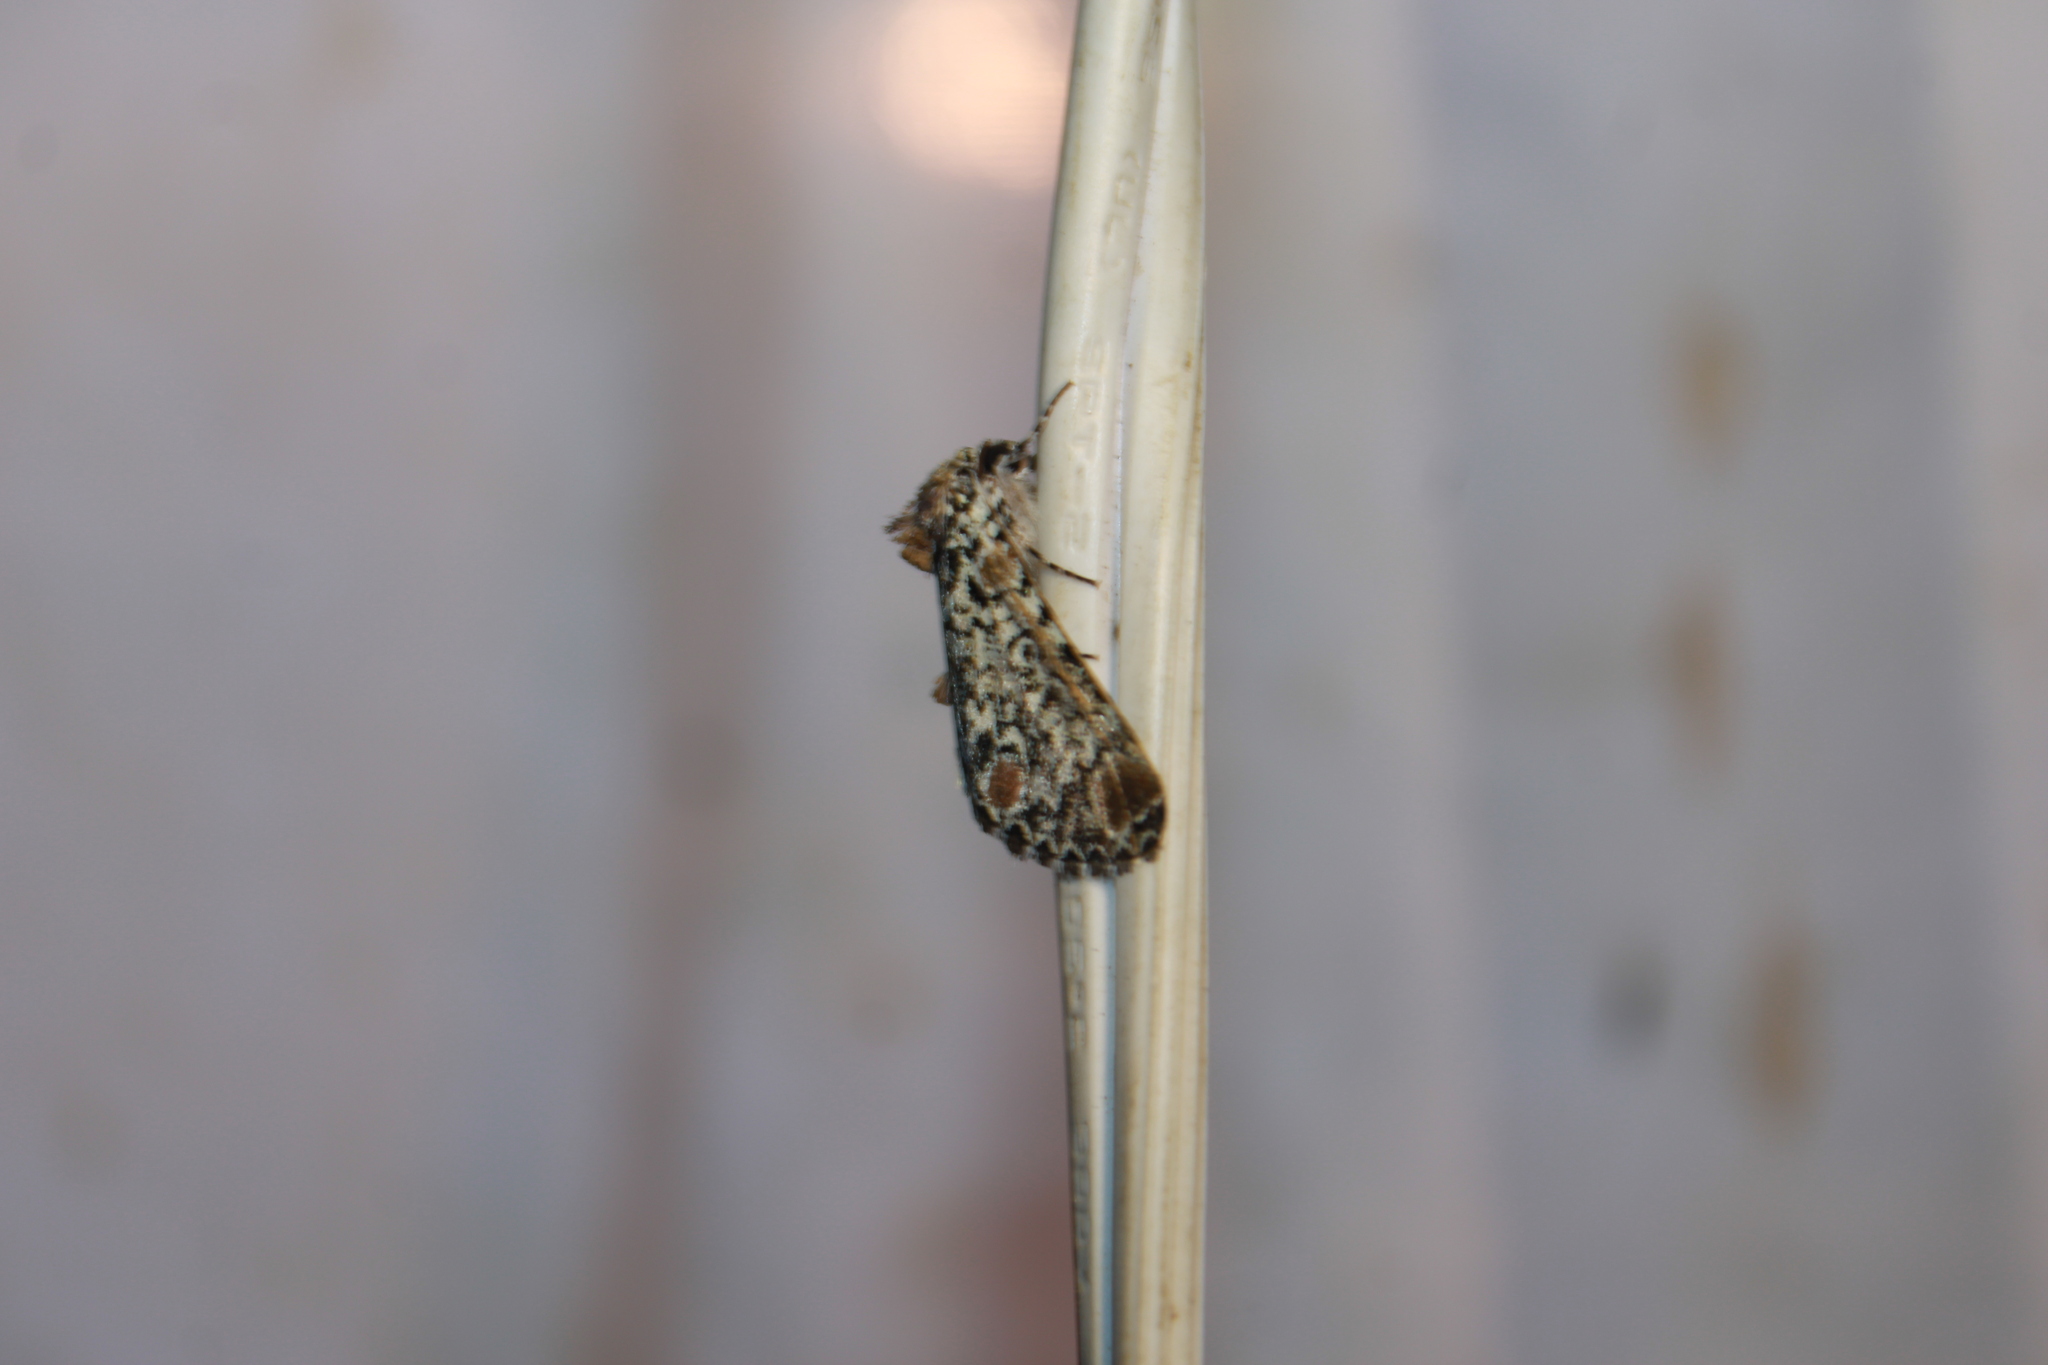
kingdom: Animalia
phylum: Arthropoda
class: Insecta
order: Lepidoptera
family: Noctuidae
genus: Harrisimemna
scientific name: Harrisimemna trisignata
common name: Harris threespot
